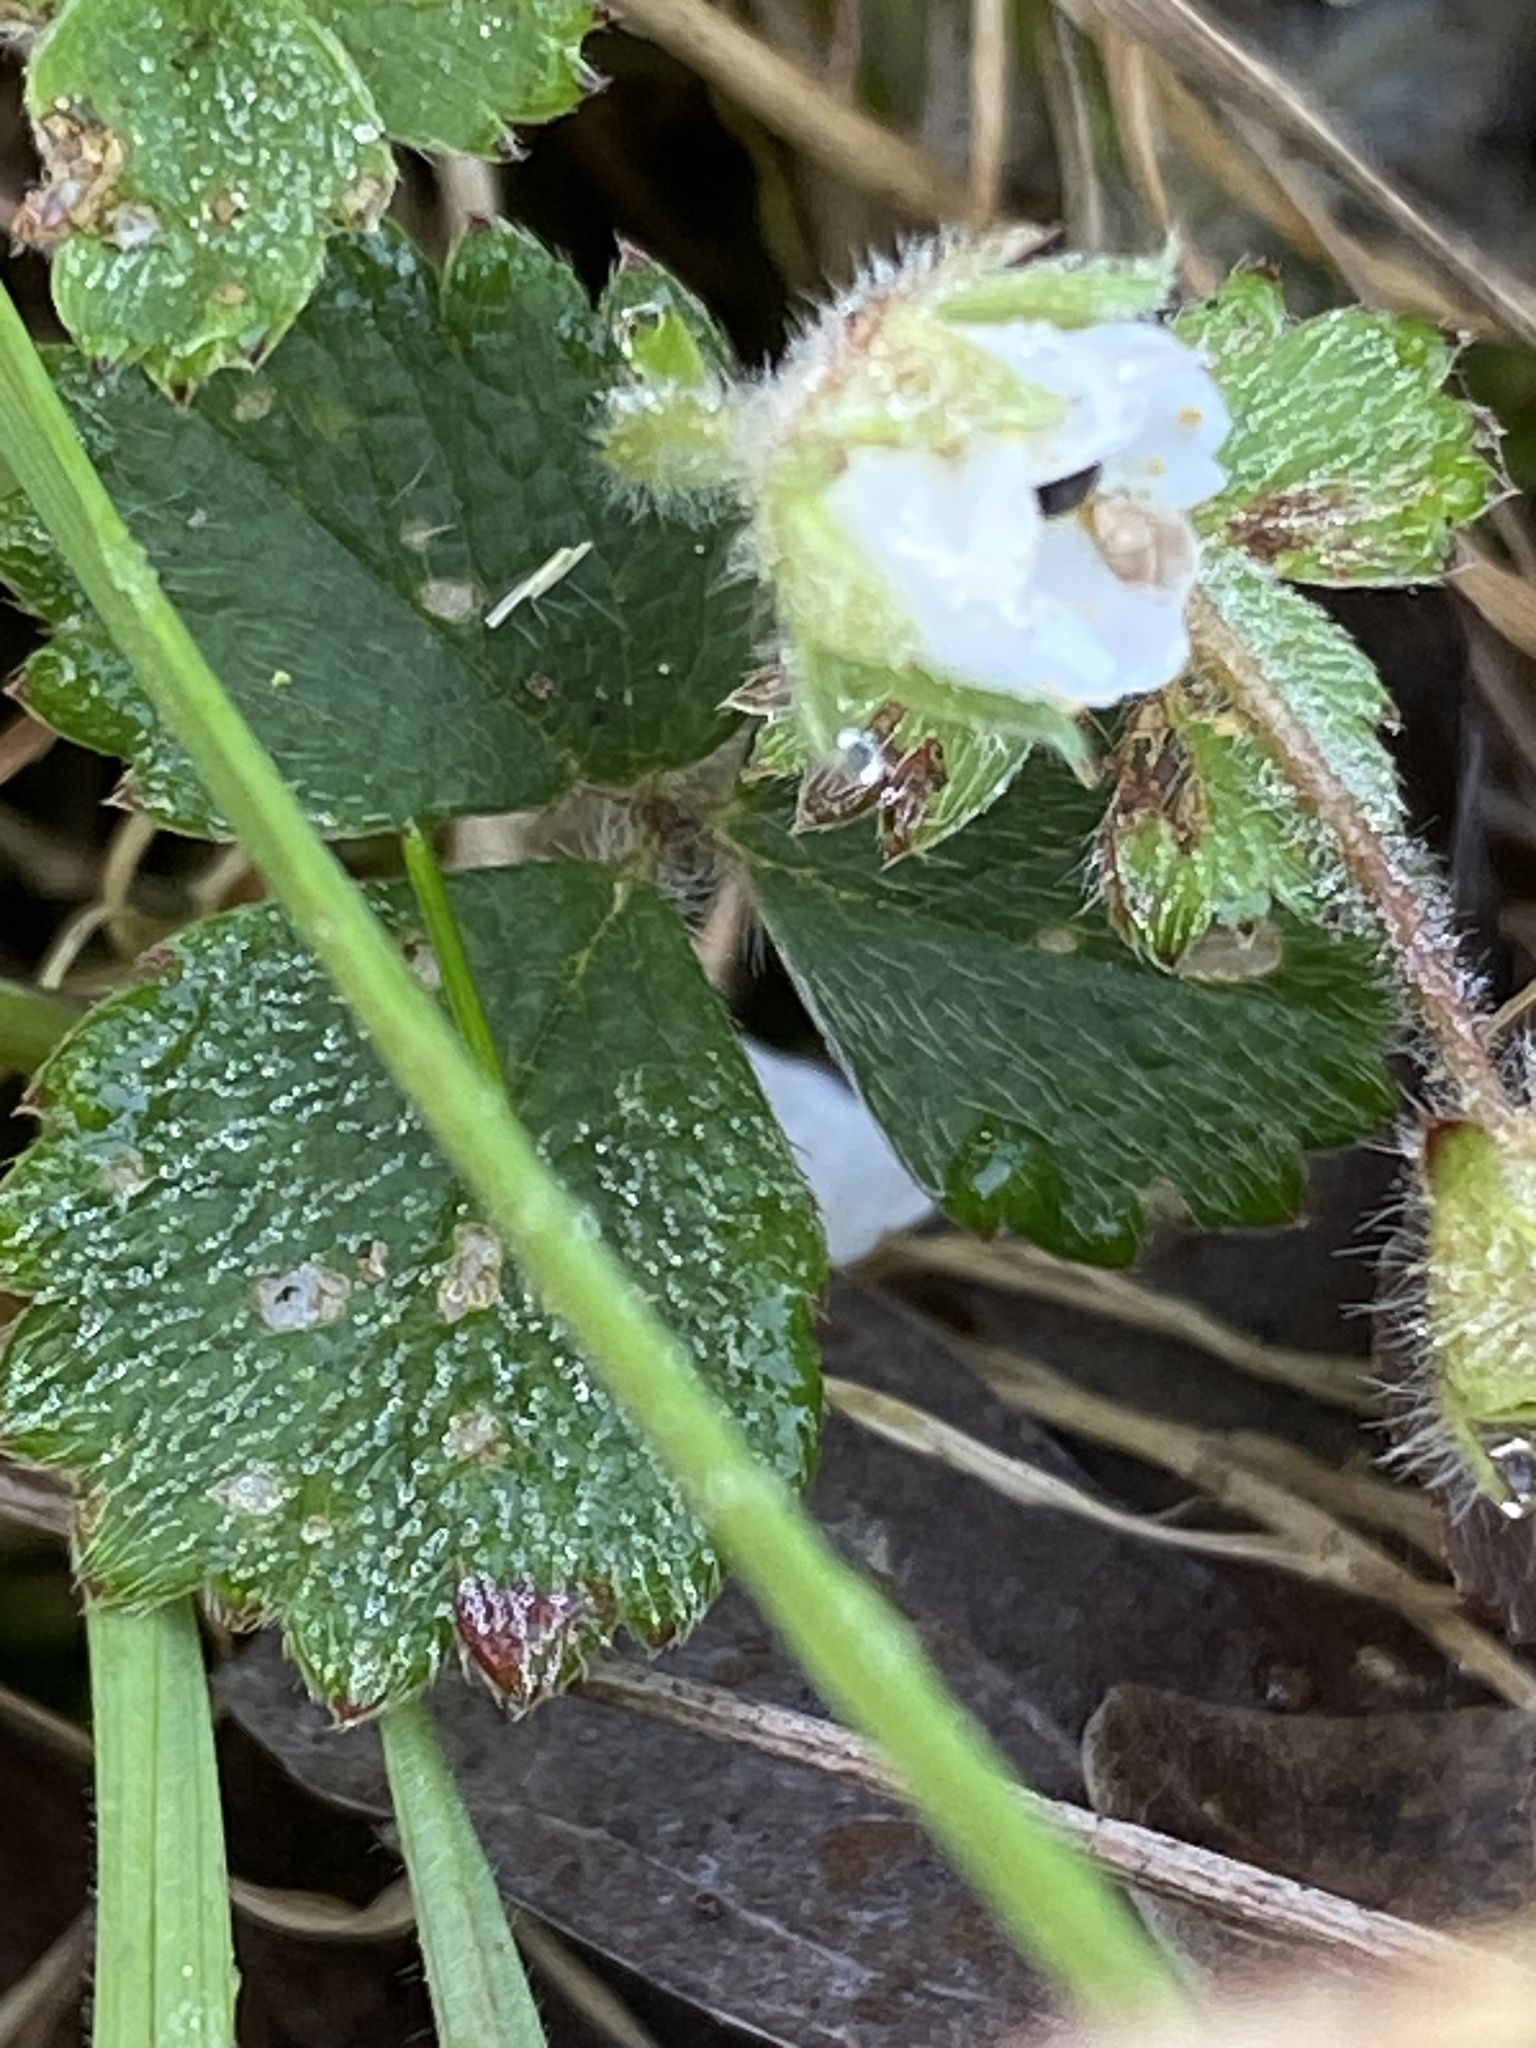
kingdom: Plantae
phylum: Tracheophyta
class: Magnoliopsida
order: Rosales
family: Rosaceae
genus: Potentilla
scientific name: Potentilla sterilis
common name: Barren strawberry
